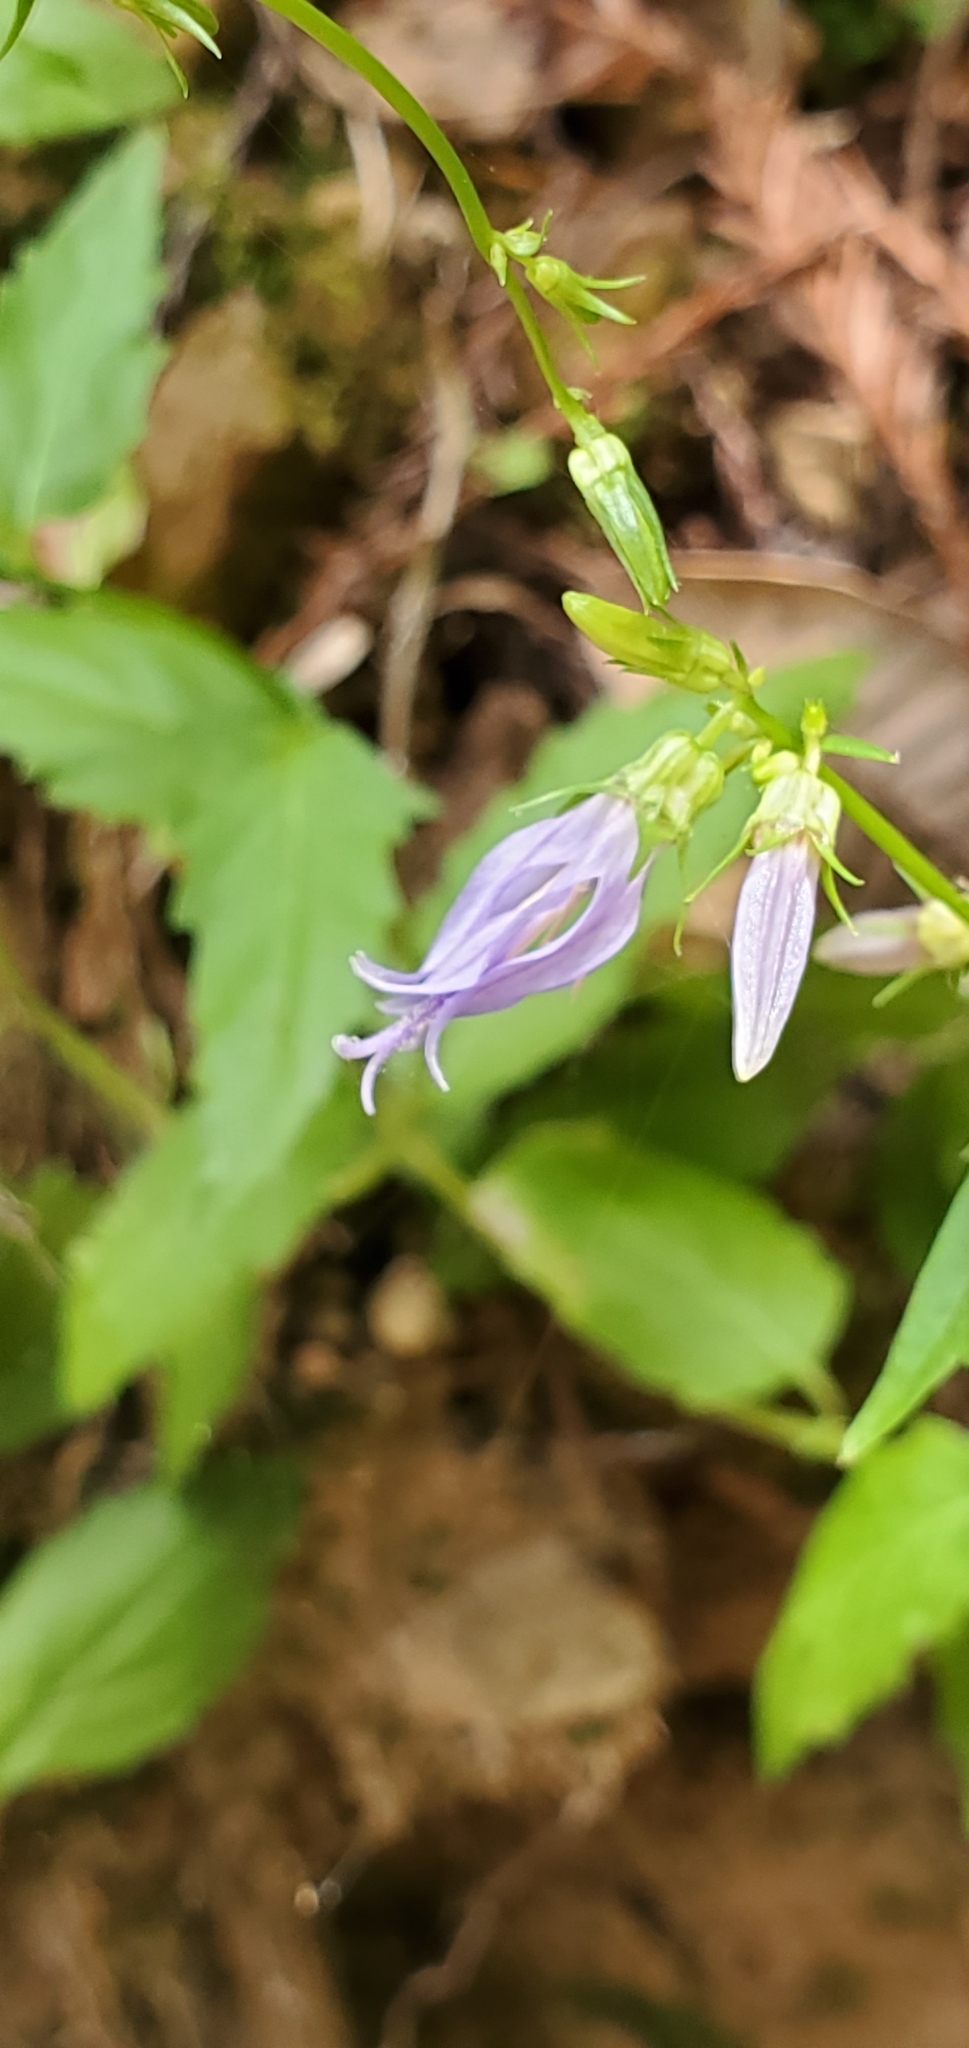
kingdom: Plantae
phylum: Tracheophyta
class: Magnoliopsida
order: Asterales
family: Campanulaceae
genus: Smithiastrum
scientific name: Smithiastrum prenanthoides
